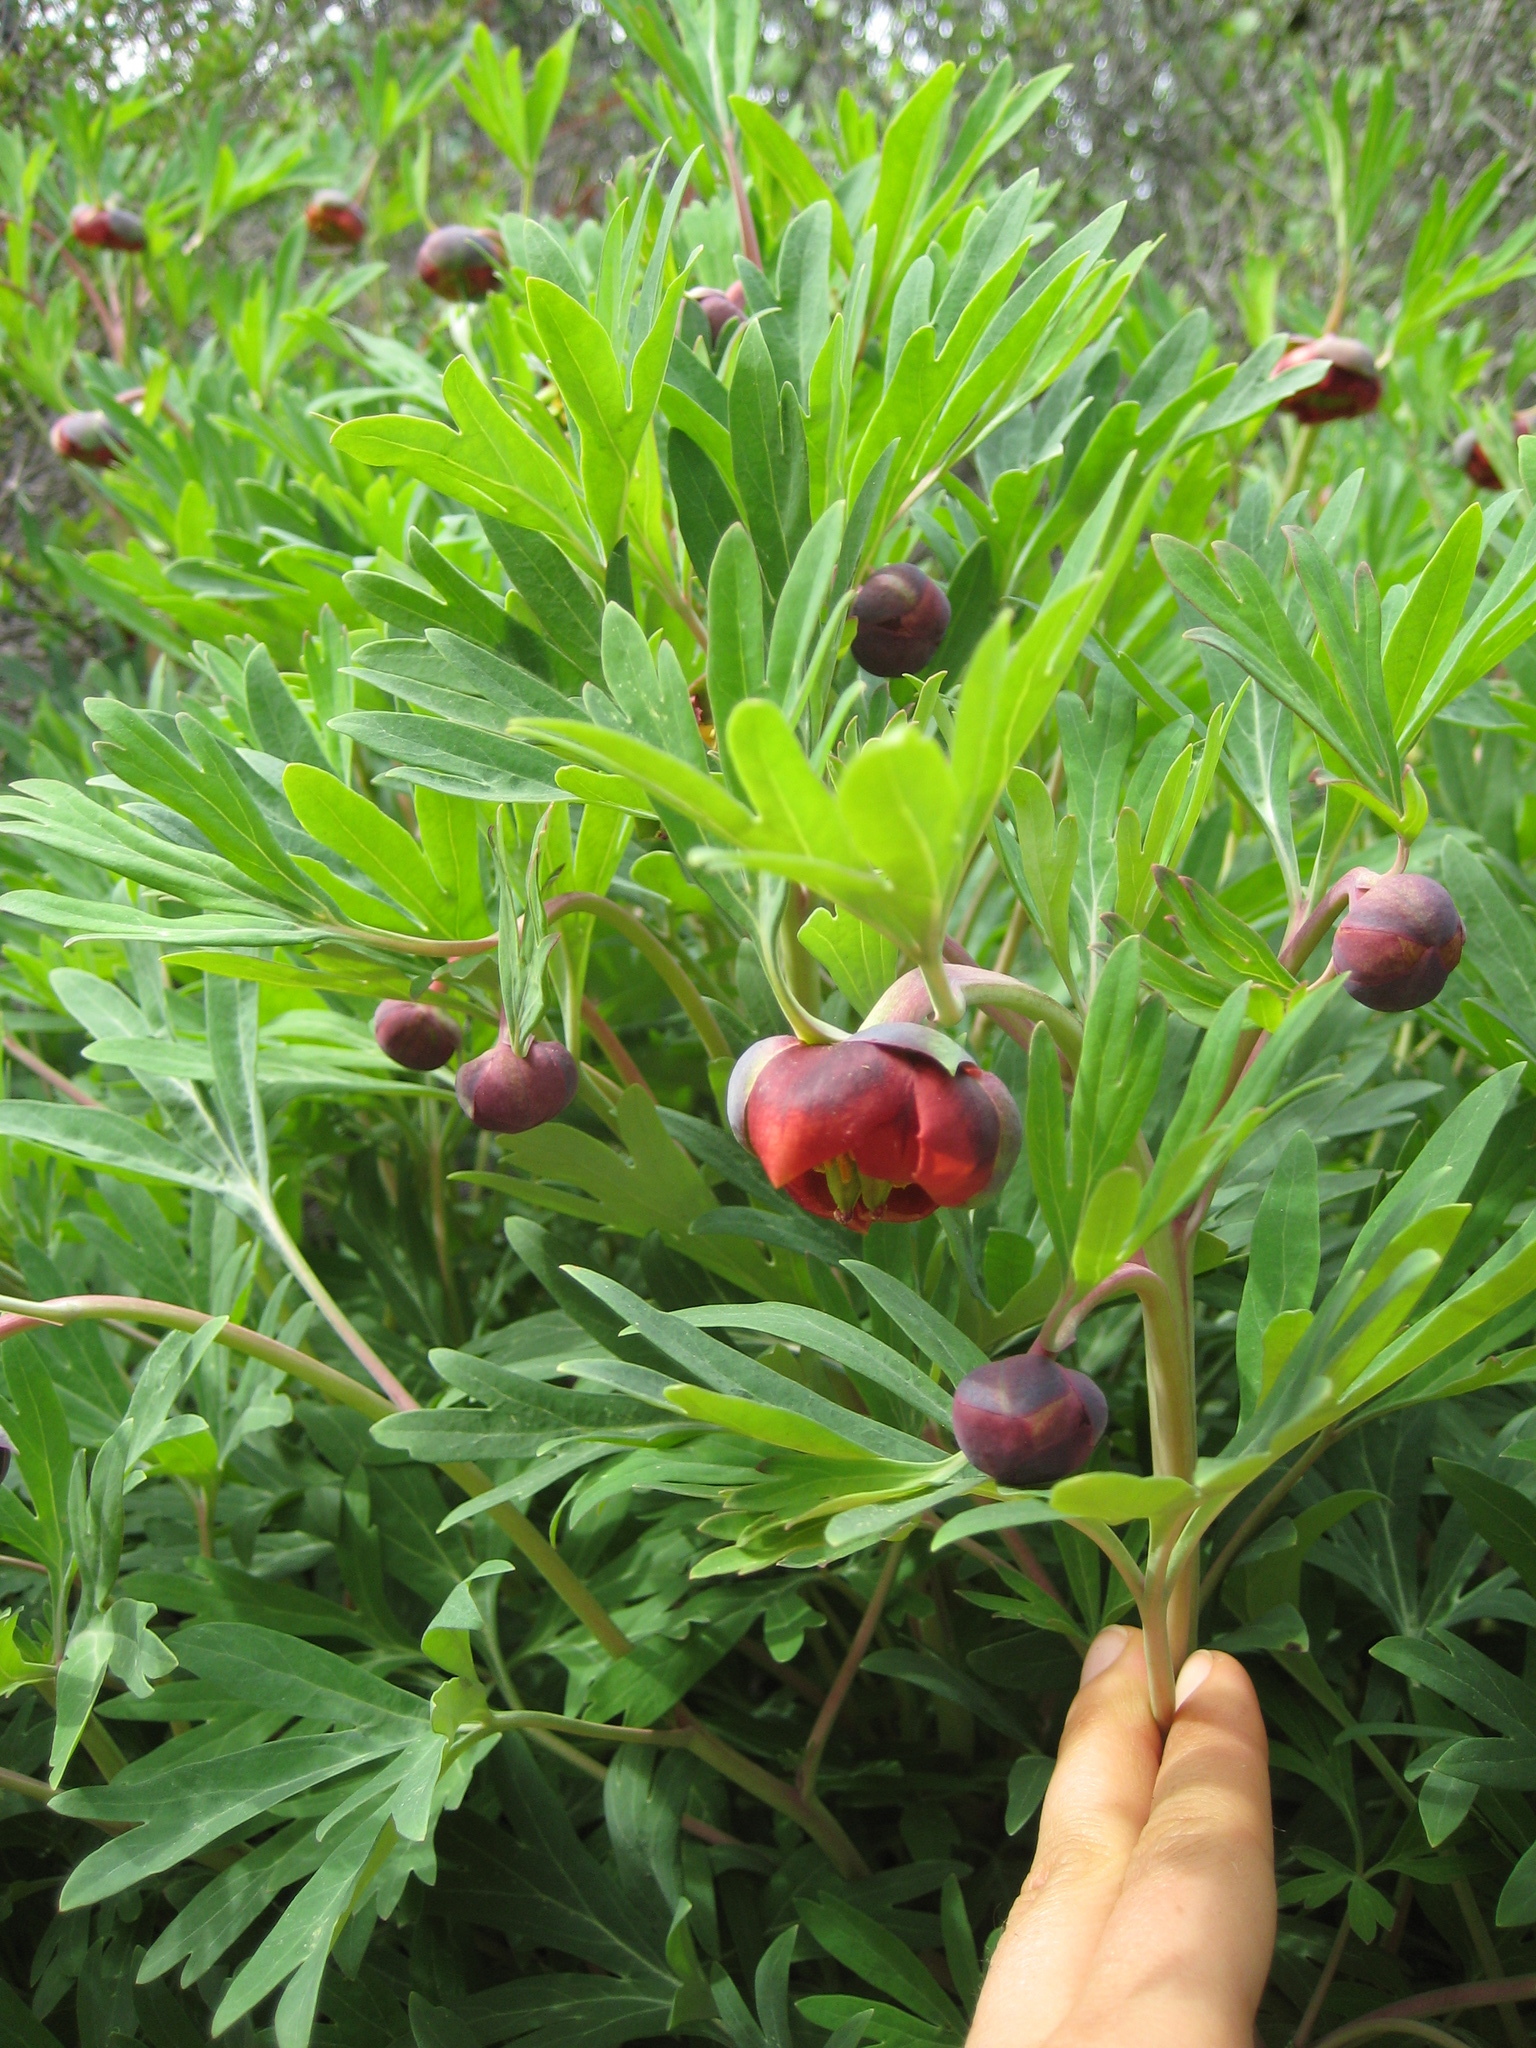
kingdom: Plantae
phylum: Tracheophyta
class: Magnoliopsida
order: Saxifragales
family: Paeoniaceae
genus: Paeonia
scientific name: Paeonia californica
